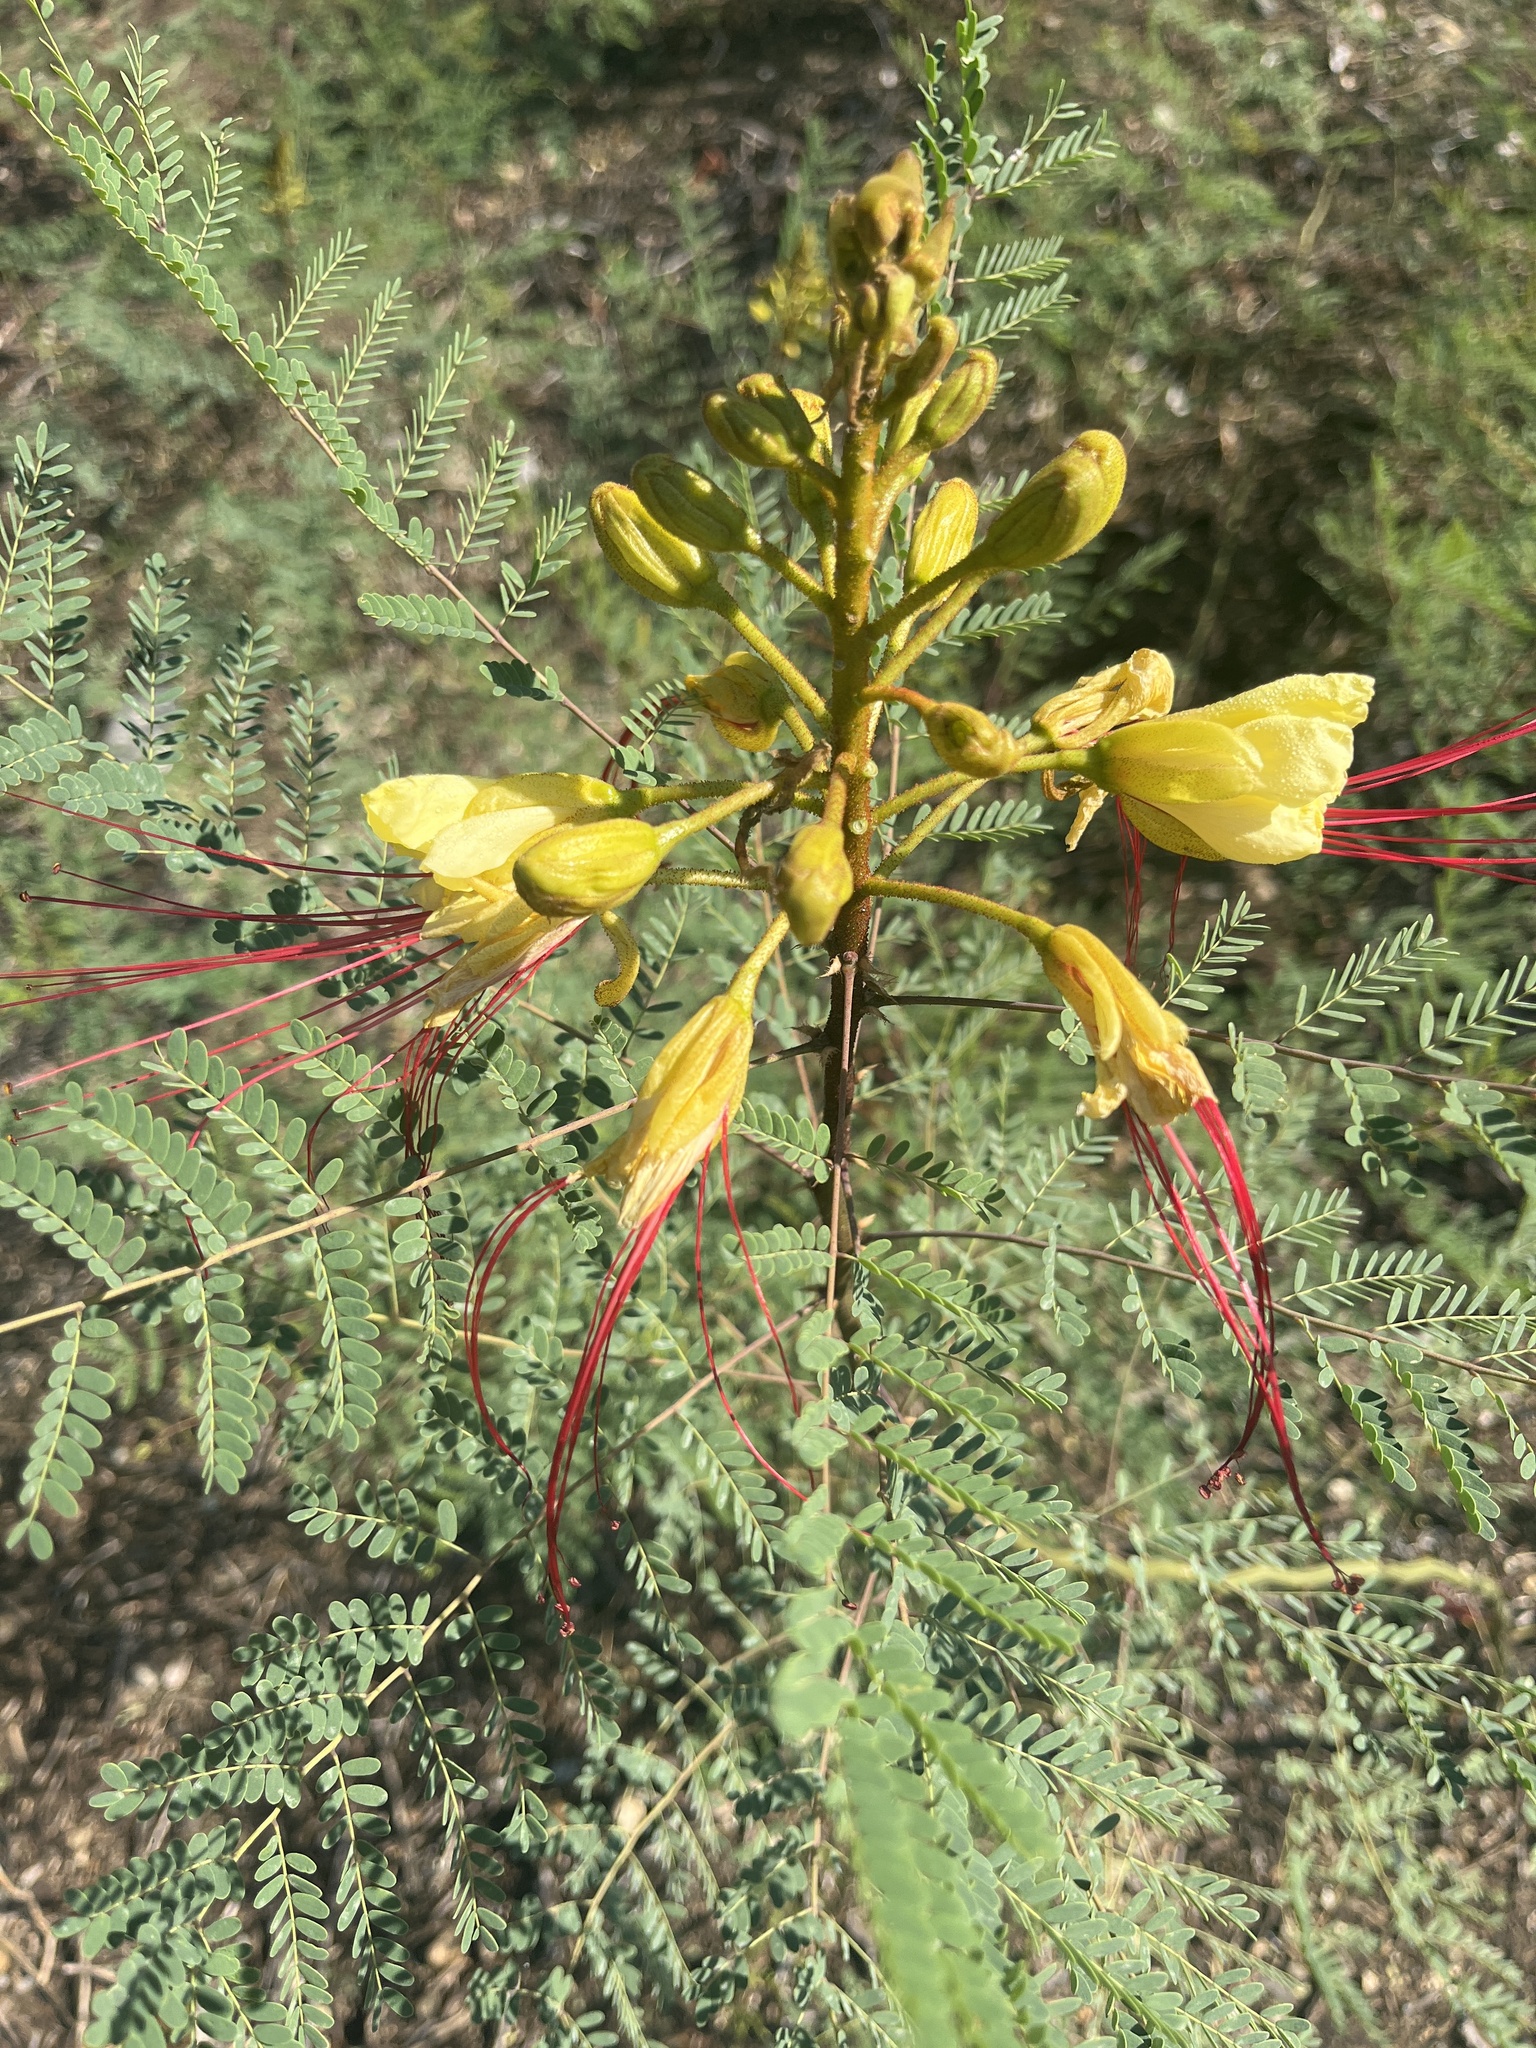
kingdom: Plantae
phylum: Tracheophyta
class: Magnoliopsida
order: Fabales
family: Fabaceae
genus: Erythrostemon
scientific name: Erythrostemon gilliesii
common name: Bird-of-paradise shrub
